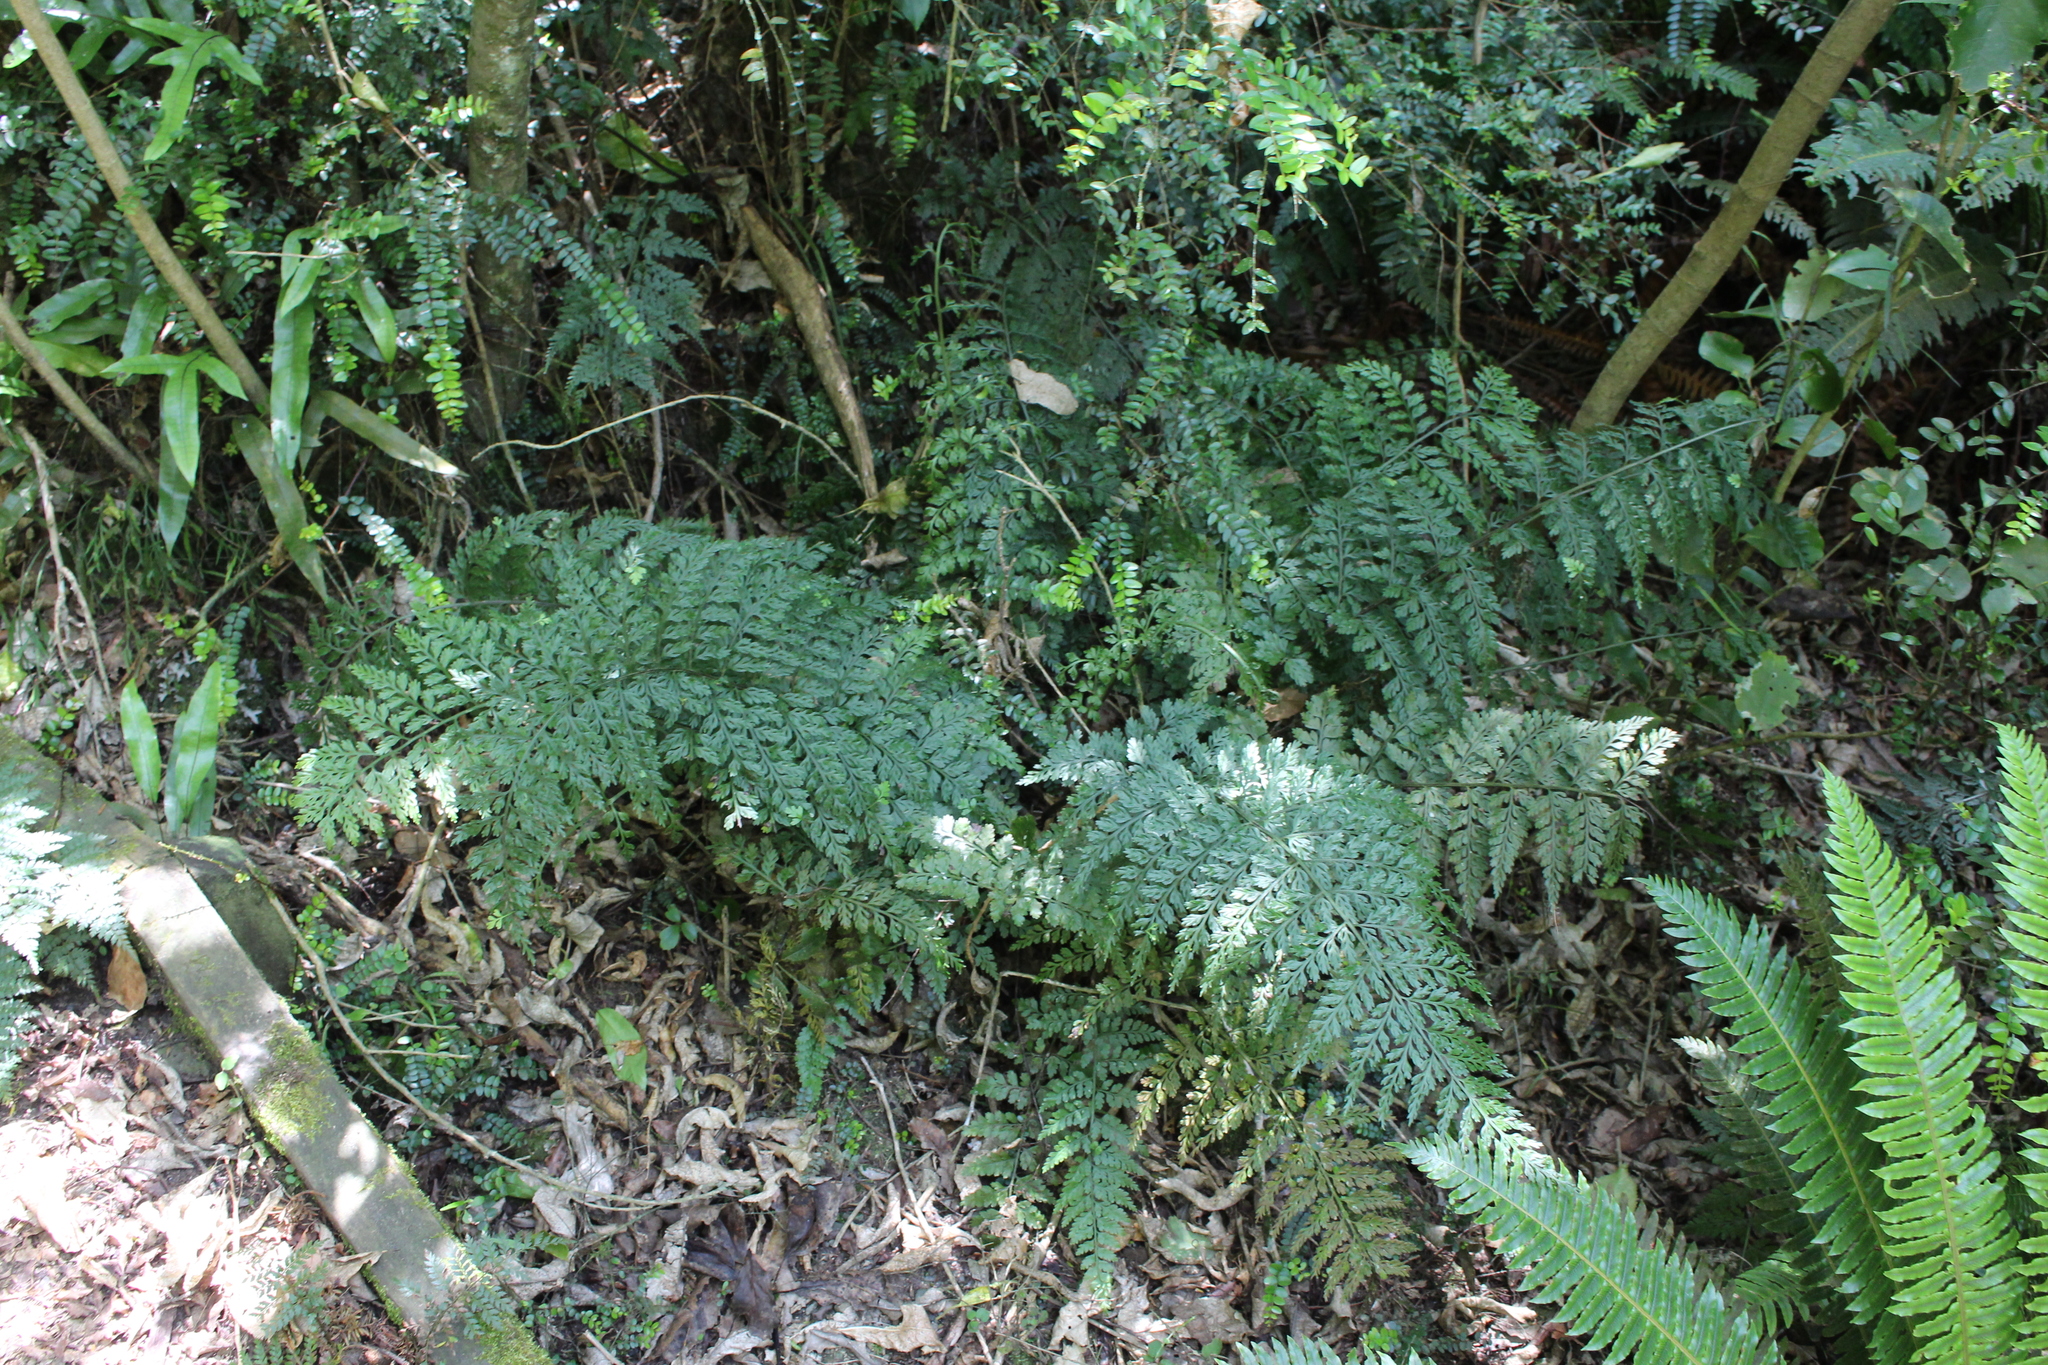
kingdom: Plantae
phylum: Tracheophyta
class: Polypodiopsida
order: Polypodiales
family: Aspleniaceae
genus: Asplenium
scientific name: Asplenium
